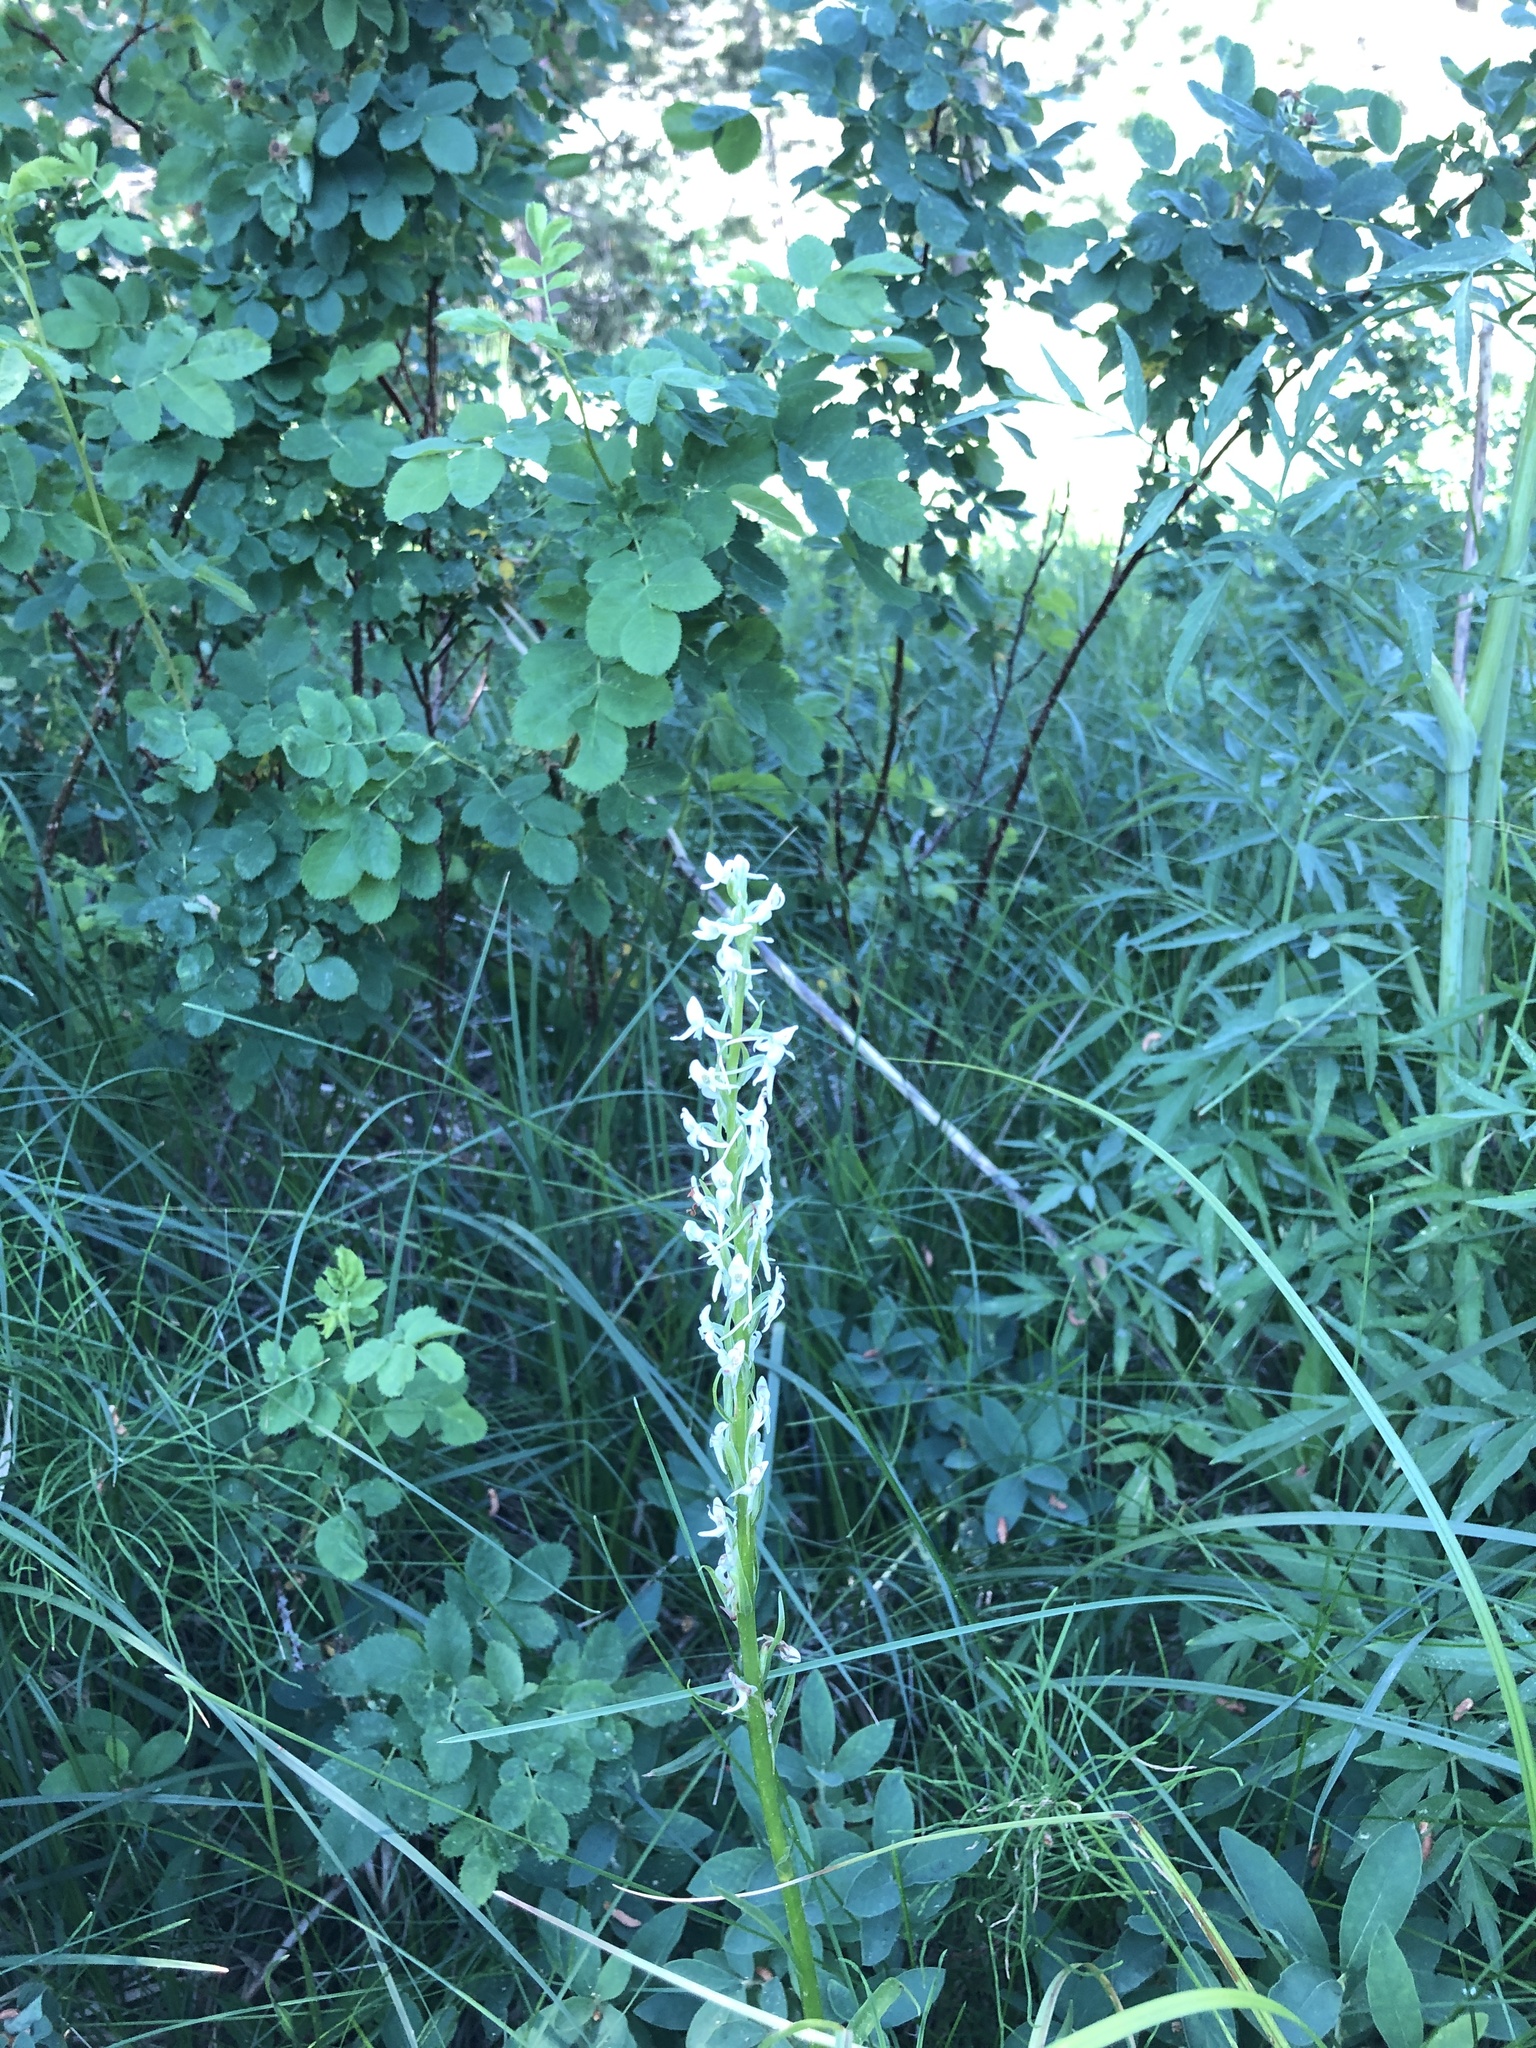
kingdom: Plantae
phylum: Tracheophyta
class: Liliopsida
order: Asparagales
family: Orchidaceae
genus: Platanthera
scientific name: Platanthera dilatata
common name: Bog candles
